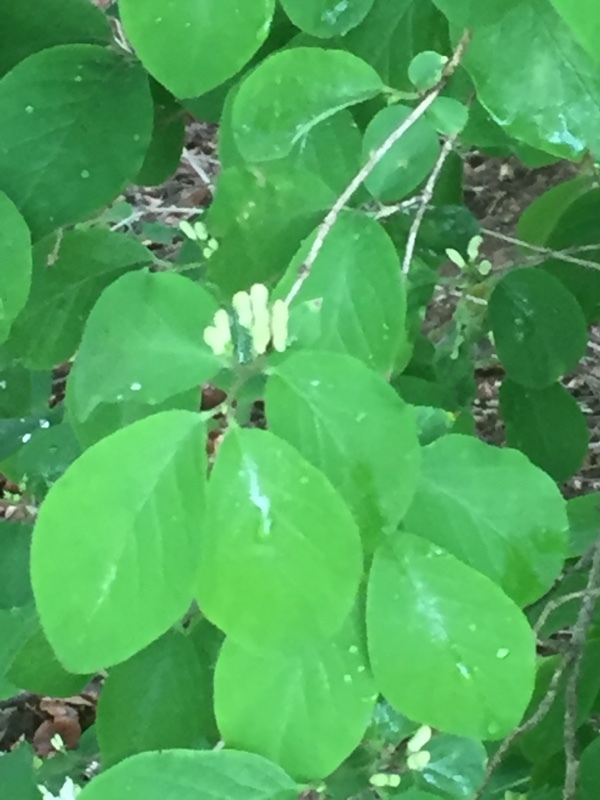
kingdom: Plantae
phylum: Tracheophyta
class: Magnoliopsida
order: Dipsacales
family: Caprifoliaceae
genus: Lonicera
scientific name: Lonicera xylosteum
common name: Fly honeysuckle
